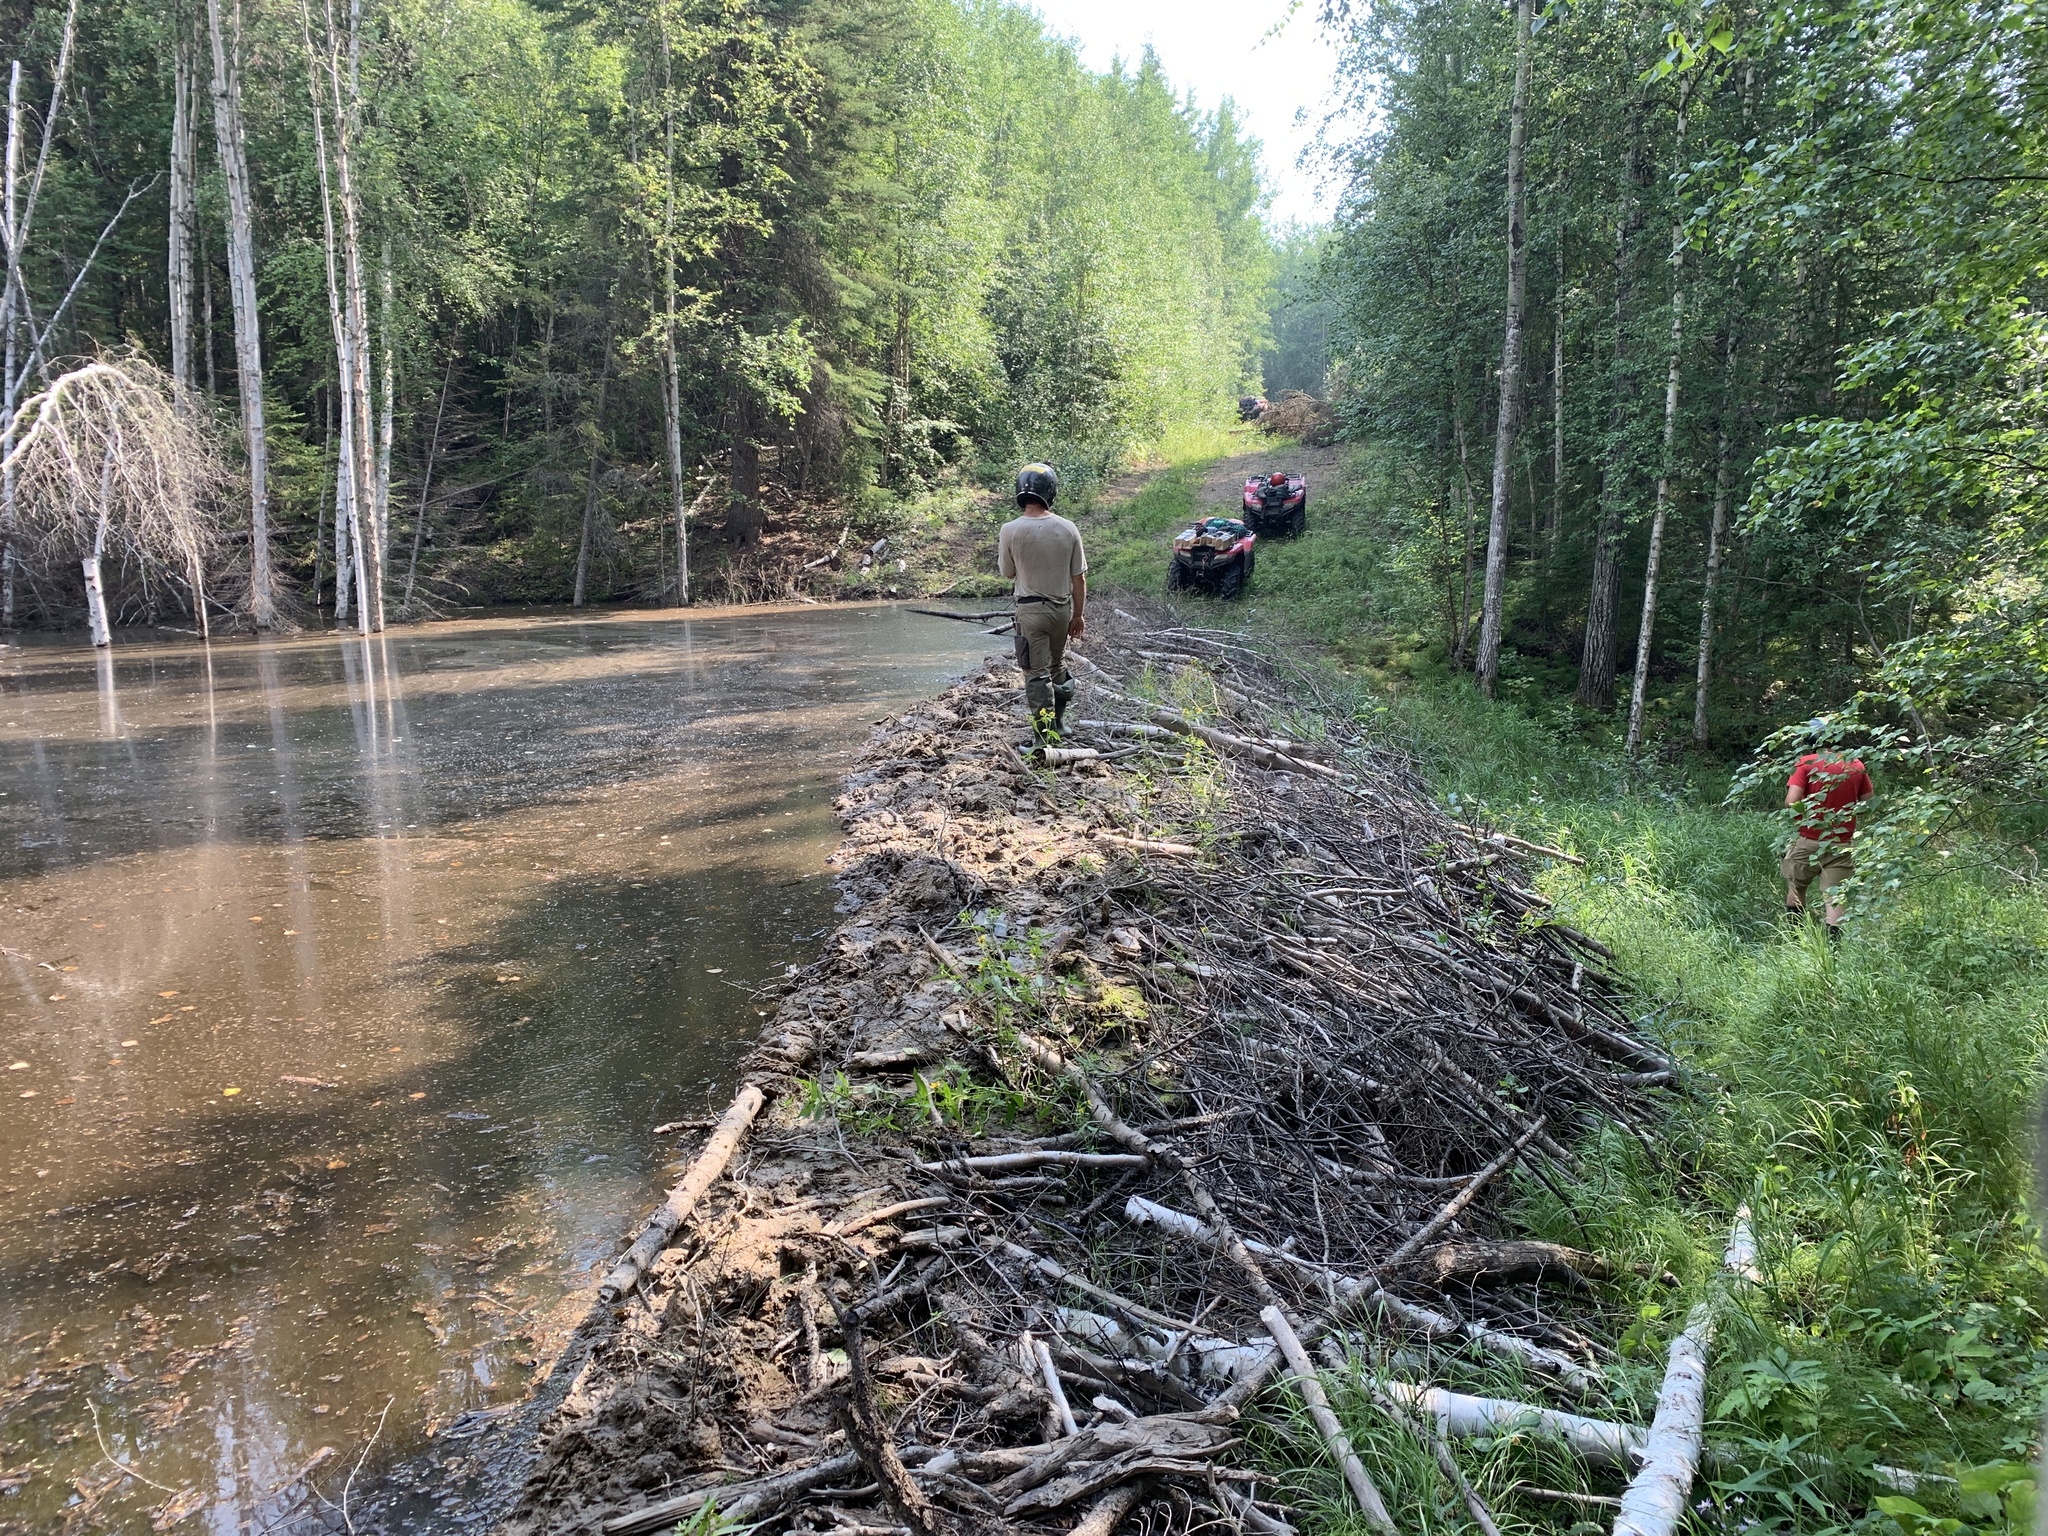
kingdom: Animalia
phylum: Chordata
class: Mammalia
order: Rodentia
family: Castoridae
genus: Castor
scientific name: Castor canadensis
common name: American beaver
